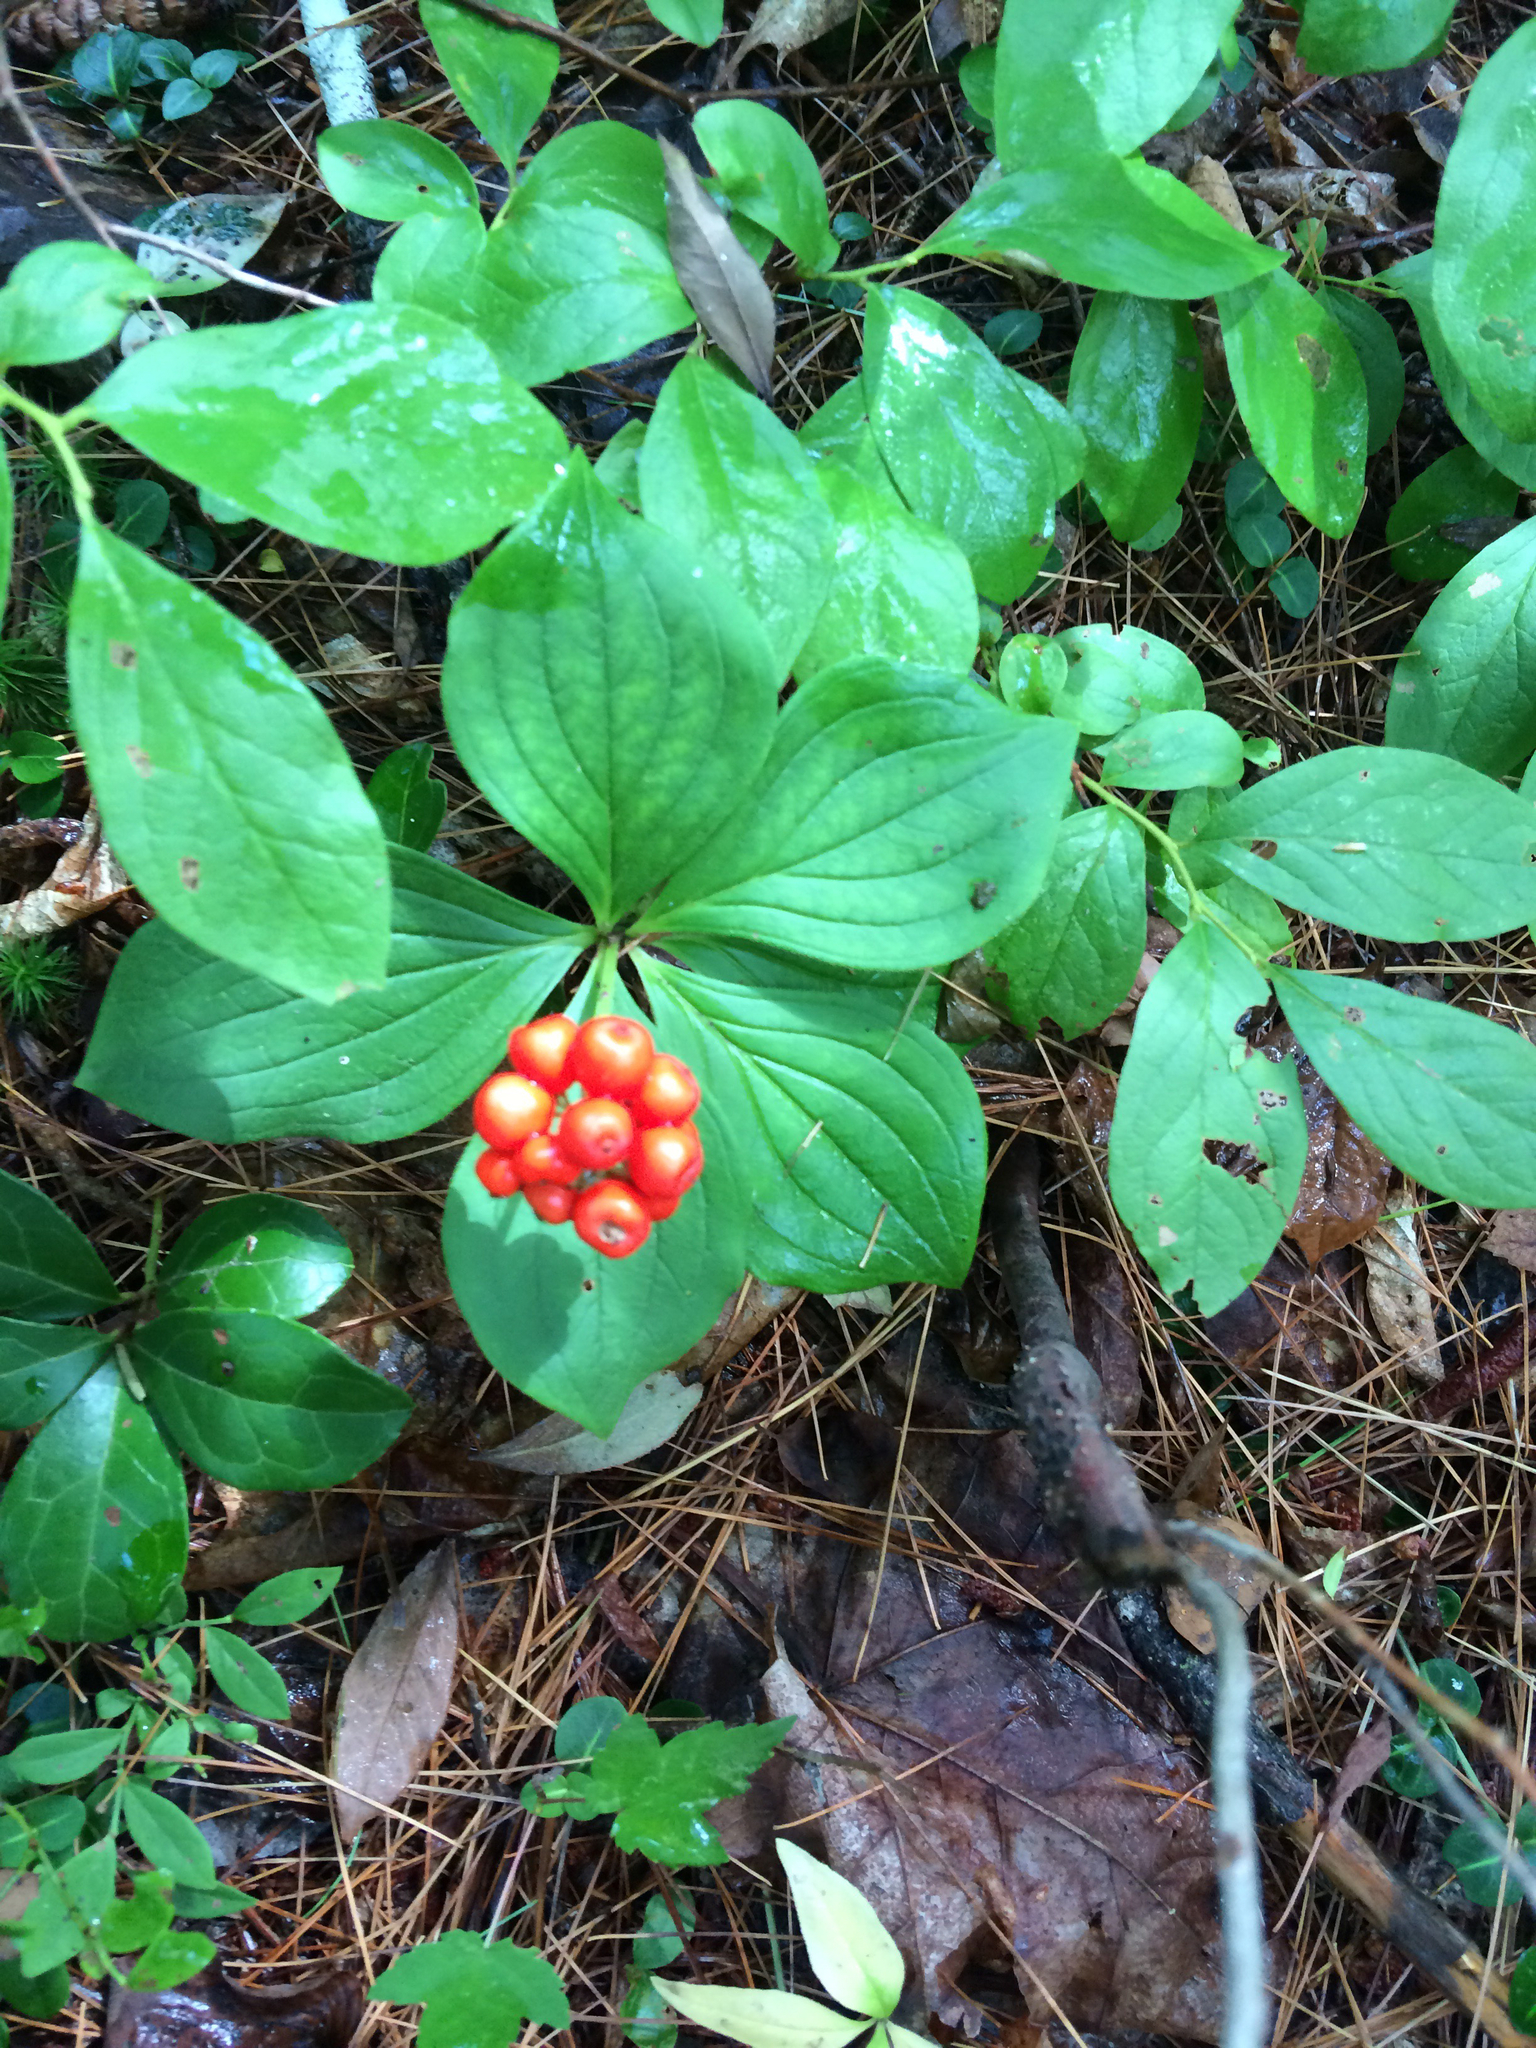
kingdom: Plantae
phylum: Tracheophyta
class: Magnoliopsida
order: Cornales
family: Cornaceae
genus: Cornus
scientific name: Cornus canadensis
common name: Creeping dogwood
